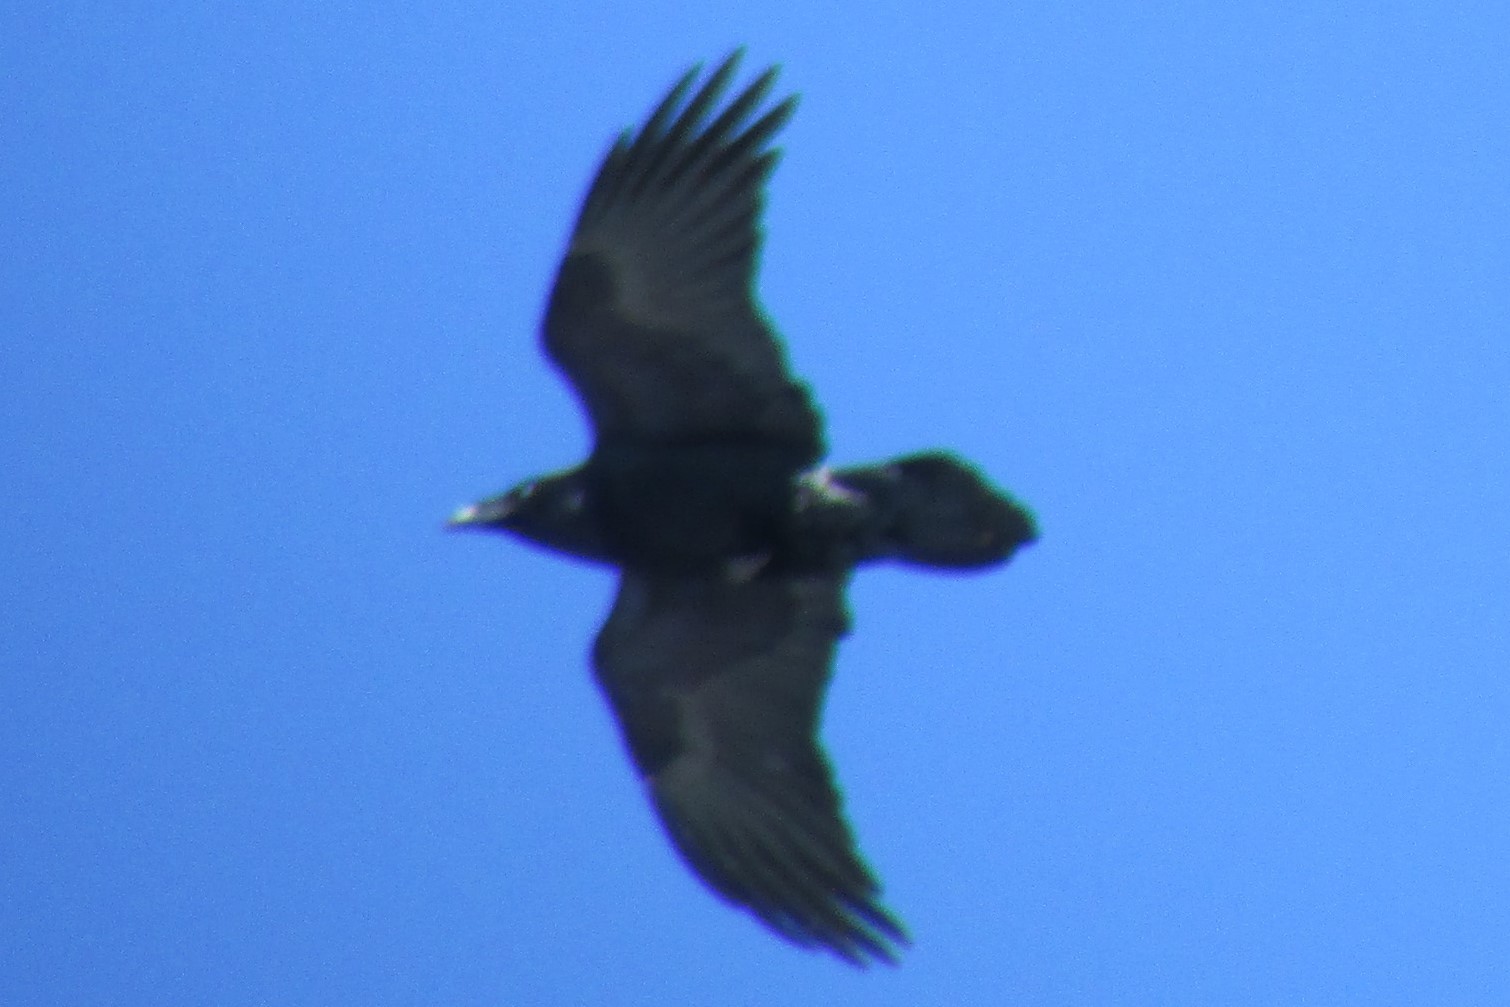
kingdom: Animalia
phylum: Chordata
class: Aves
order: Passeriformes
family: Corvidae
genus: Corvus
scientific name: Corvus corax
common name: Common raven
